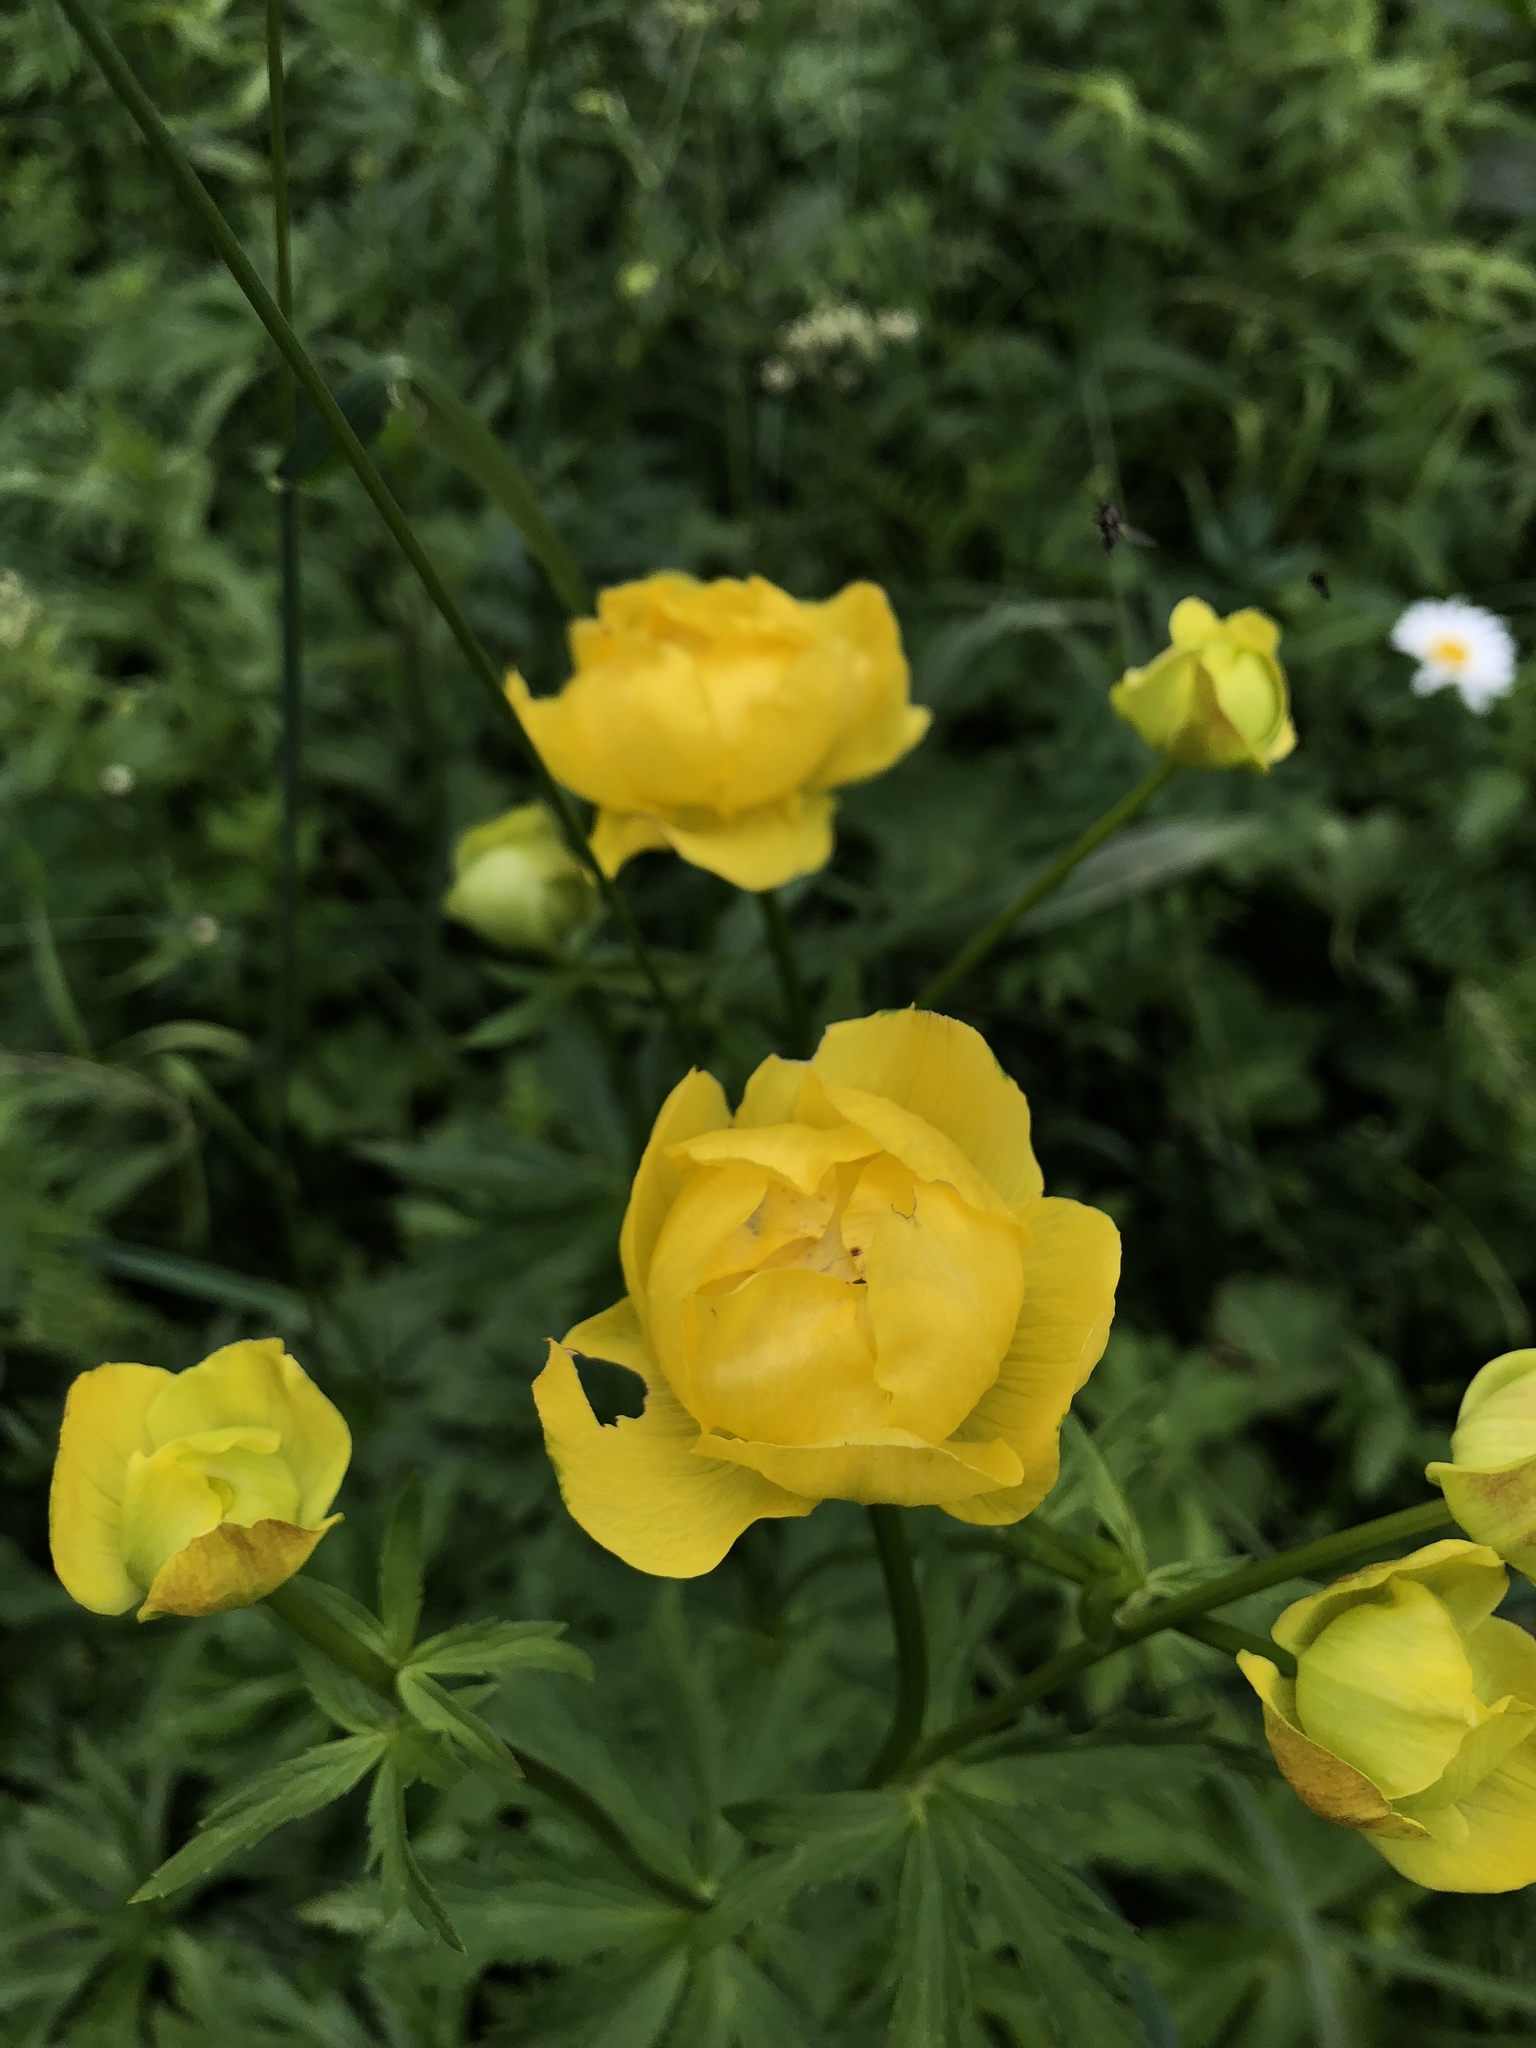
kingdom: Plantae
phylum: Tracheophyta
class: Magnoliopsida
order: Ranunculales
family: Ranunculaceae
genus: Trollius
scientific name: Trollius europaeus
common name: European globeflower
